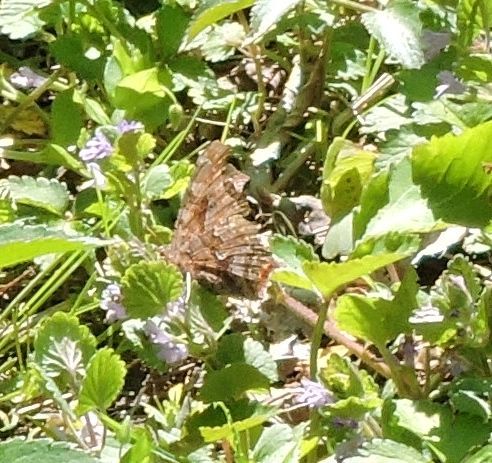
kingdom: Animalia
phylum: Arthropoda
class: Insecta
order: Lepidoptera
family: Nymphalidae
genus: Polygonia
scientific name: Polygonia comma
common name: Eastern comma
